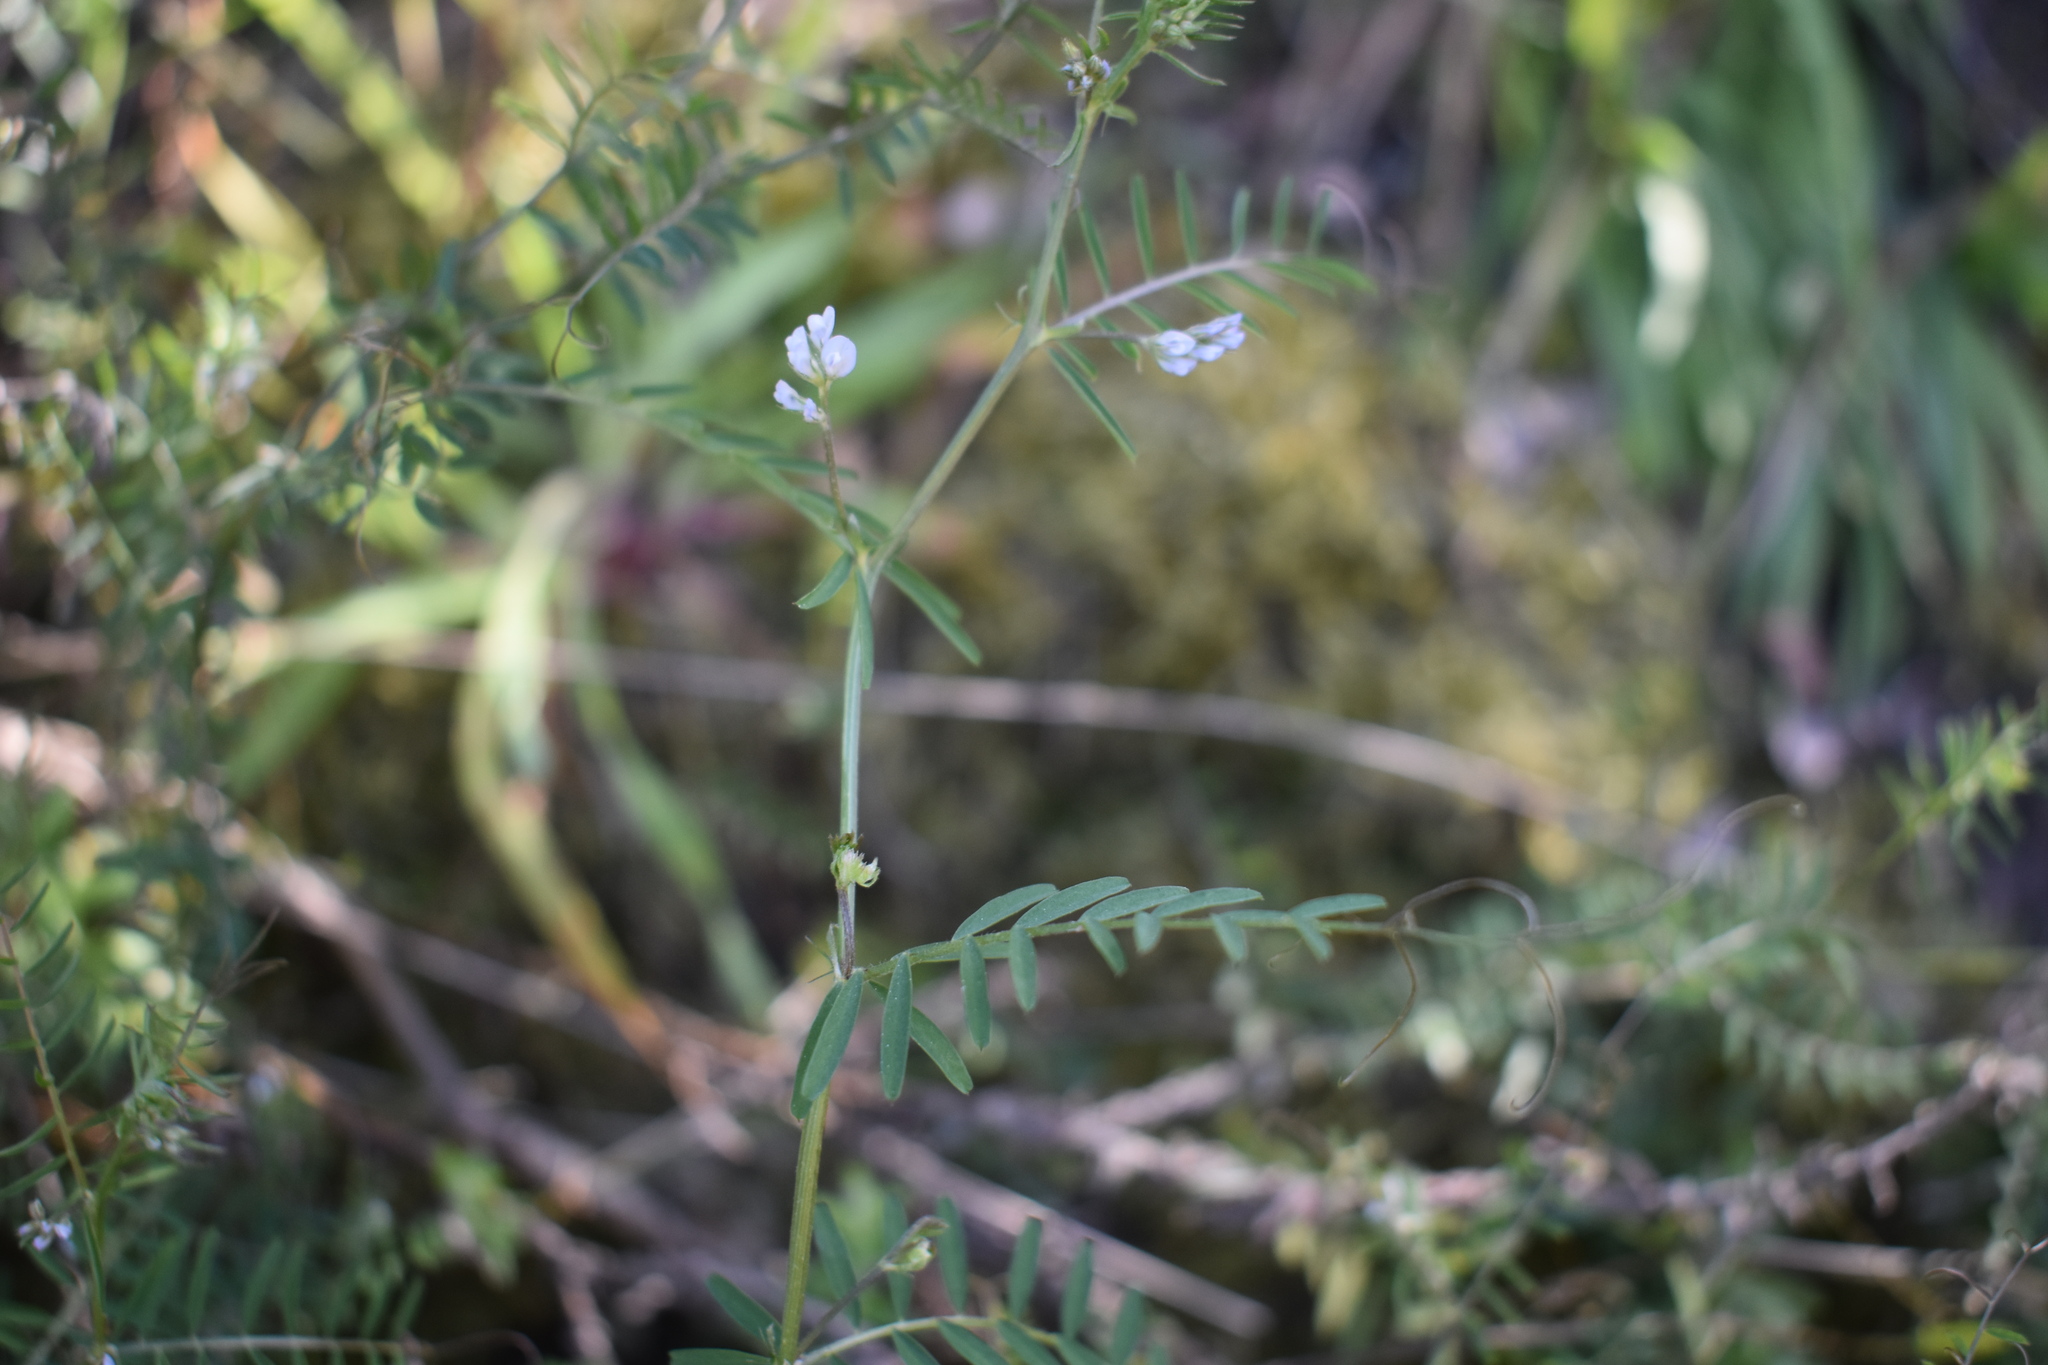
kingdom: Plantae
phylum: Tracheophyta
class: Magnoliopsida
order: Fabales
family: Fabaceae
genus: Vicia
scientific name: Vicia hirsuta
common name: Tiny vetch
